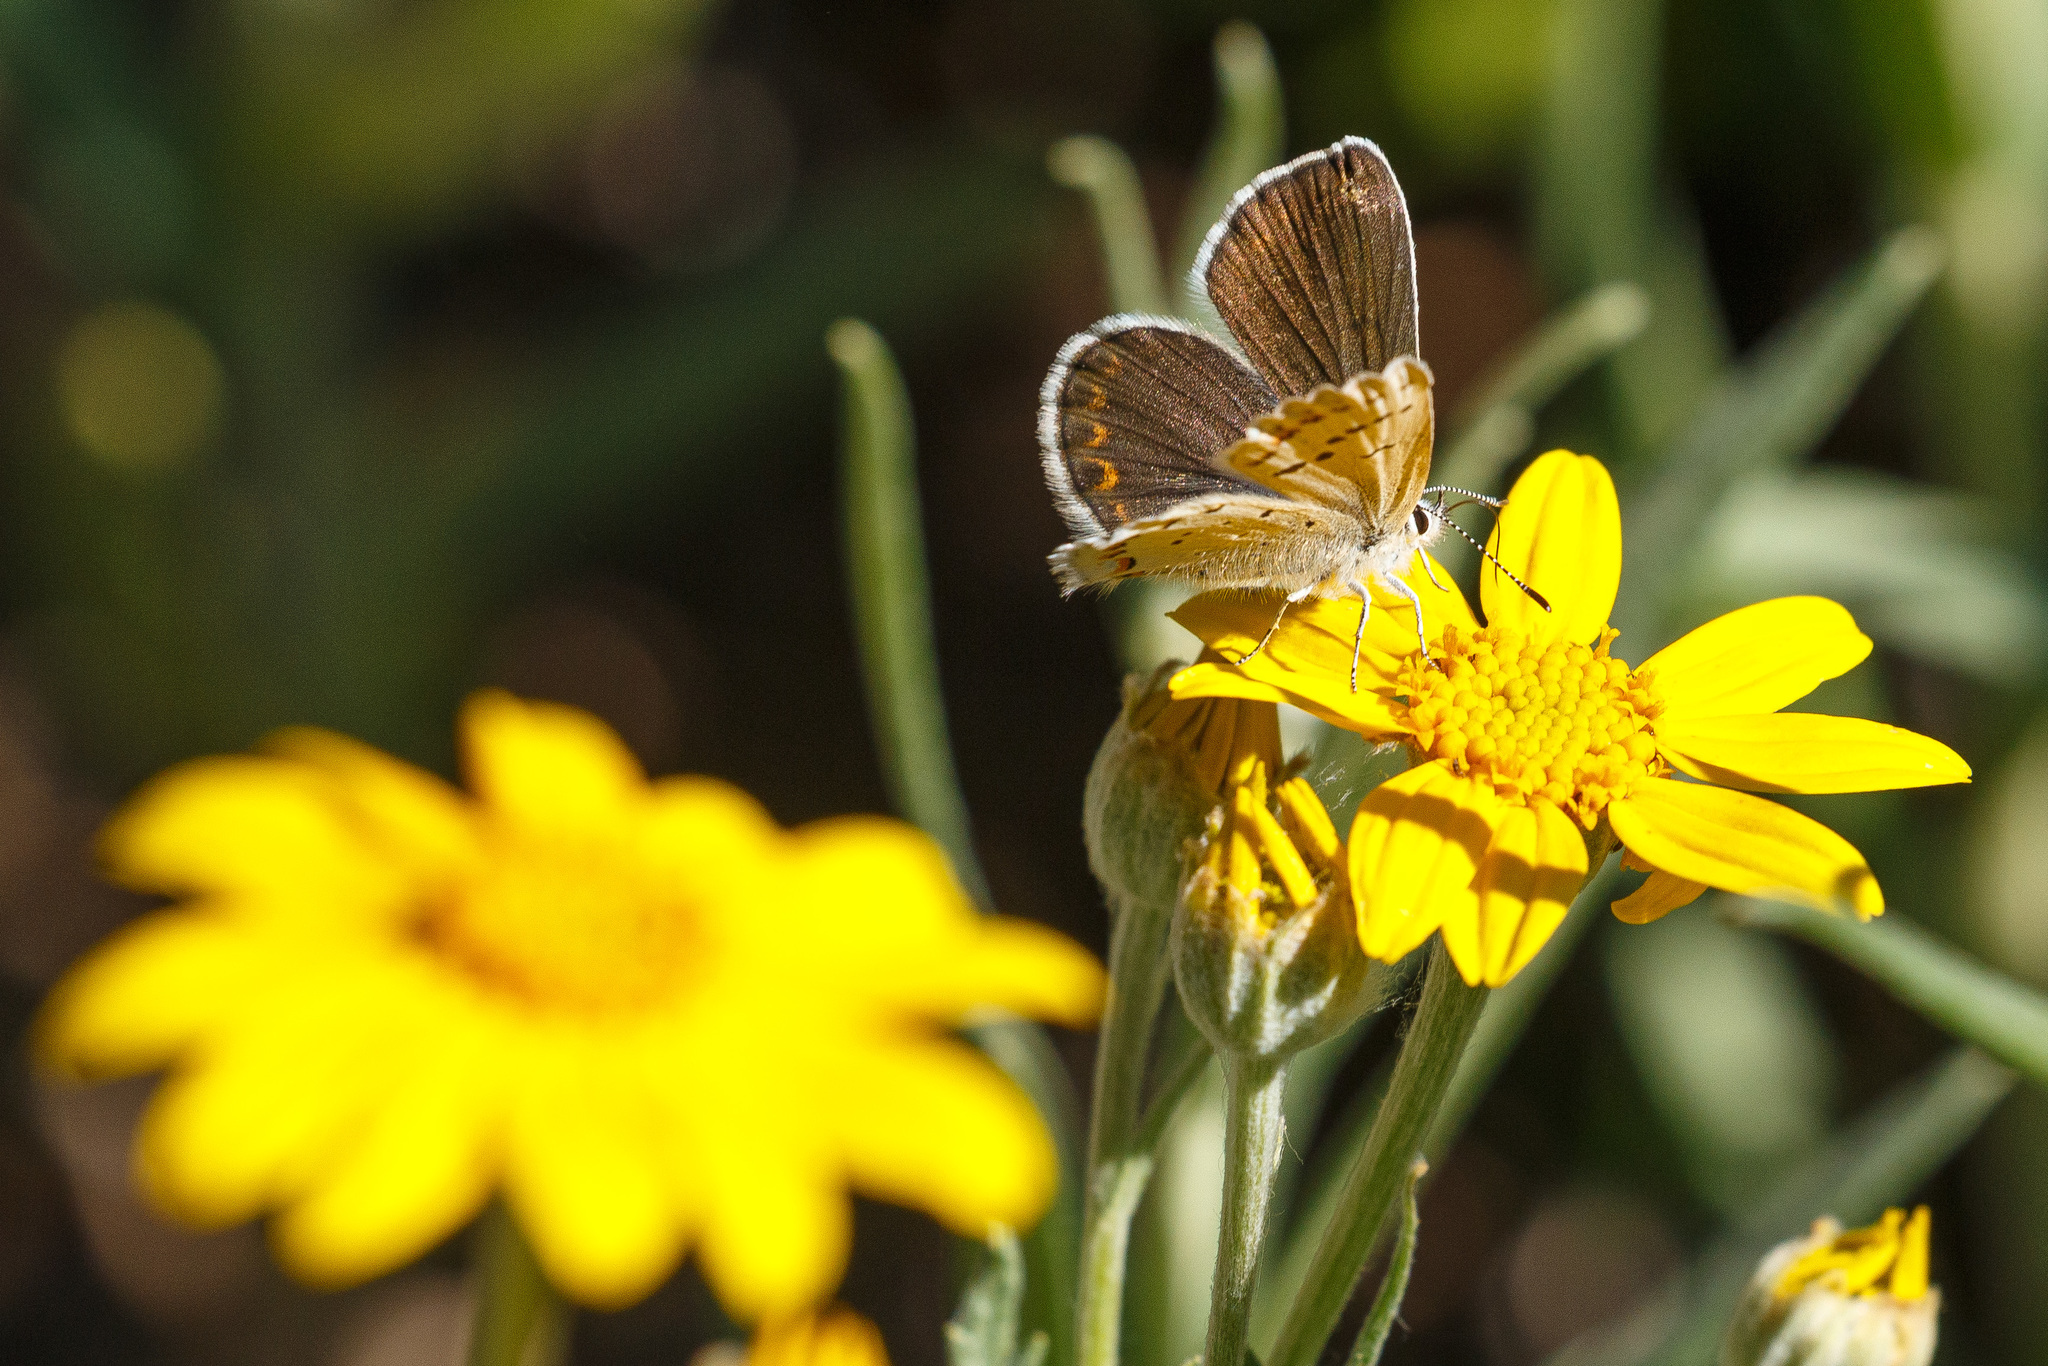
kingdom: Animalia
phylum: Arthropoda
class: Insecta
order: Lepidoptera
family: Lycaenidae
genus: Lycaeides
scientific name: Lycaeides anna
